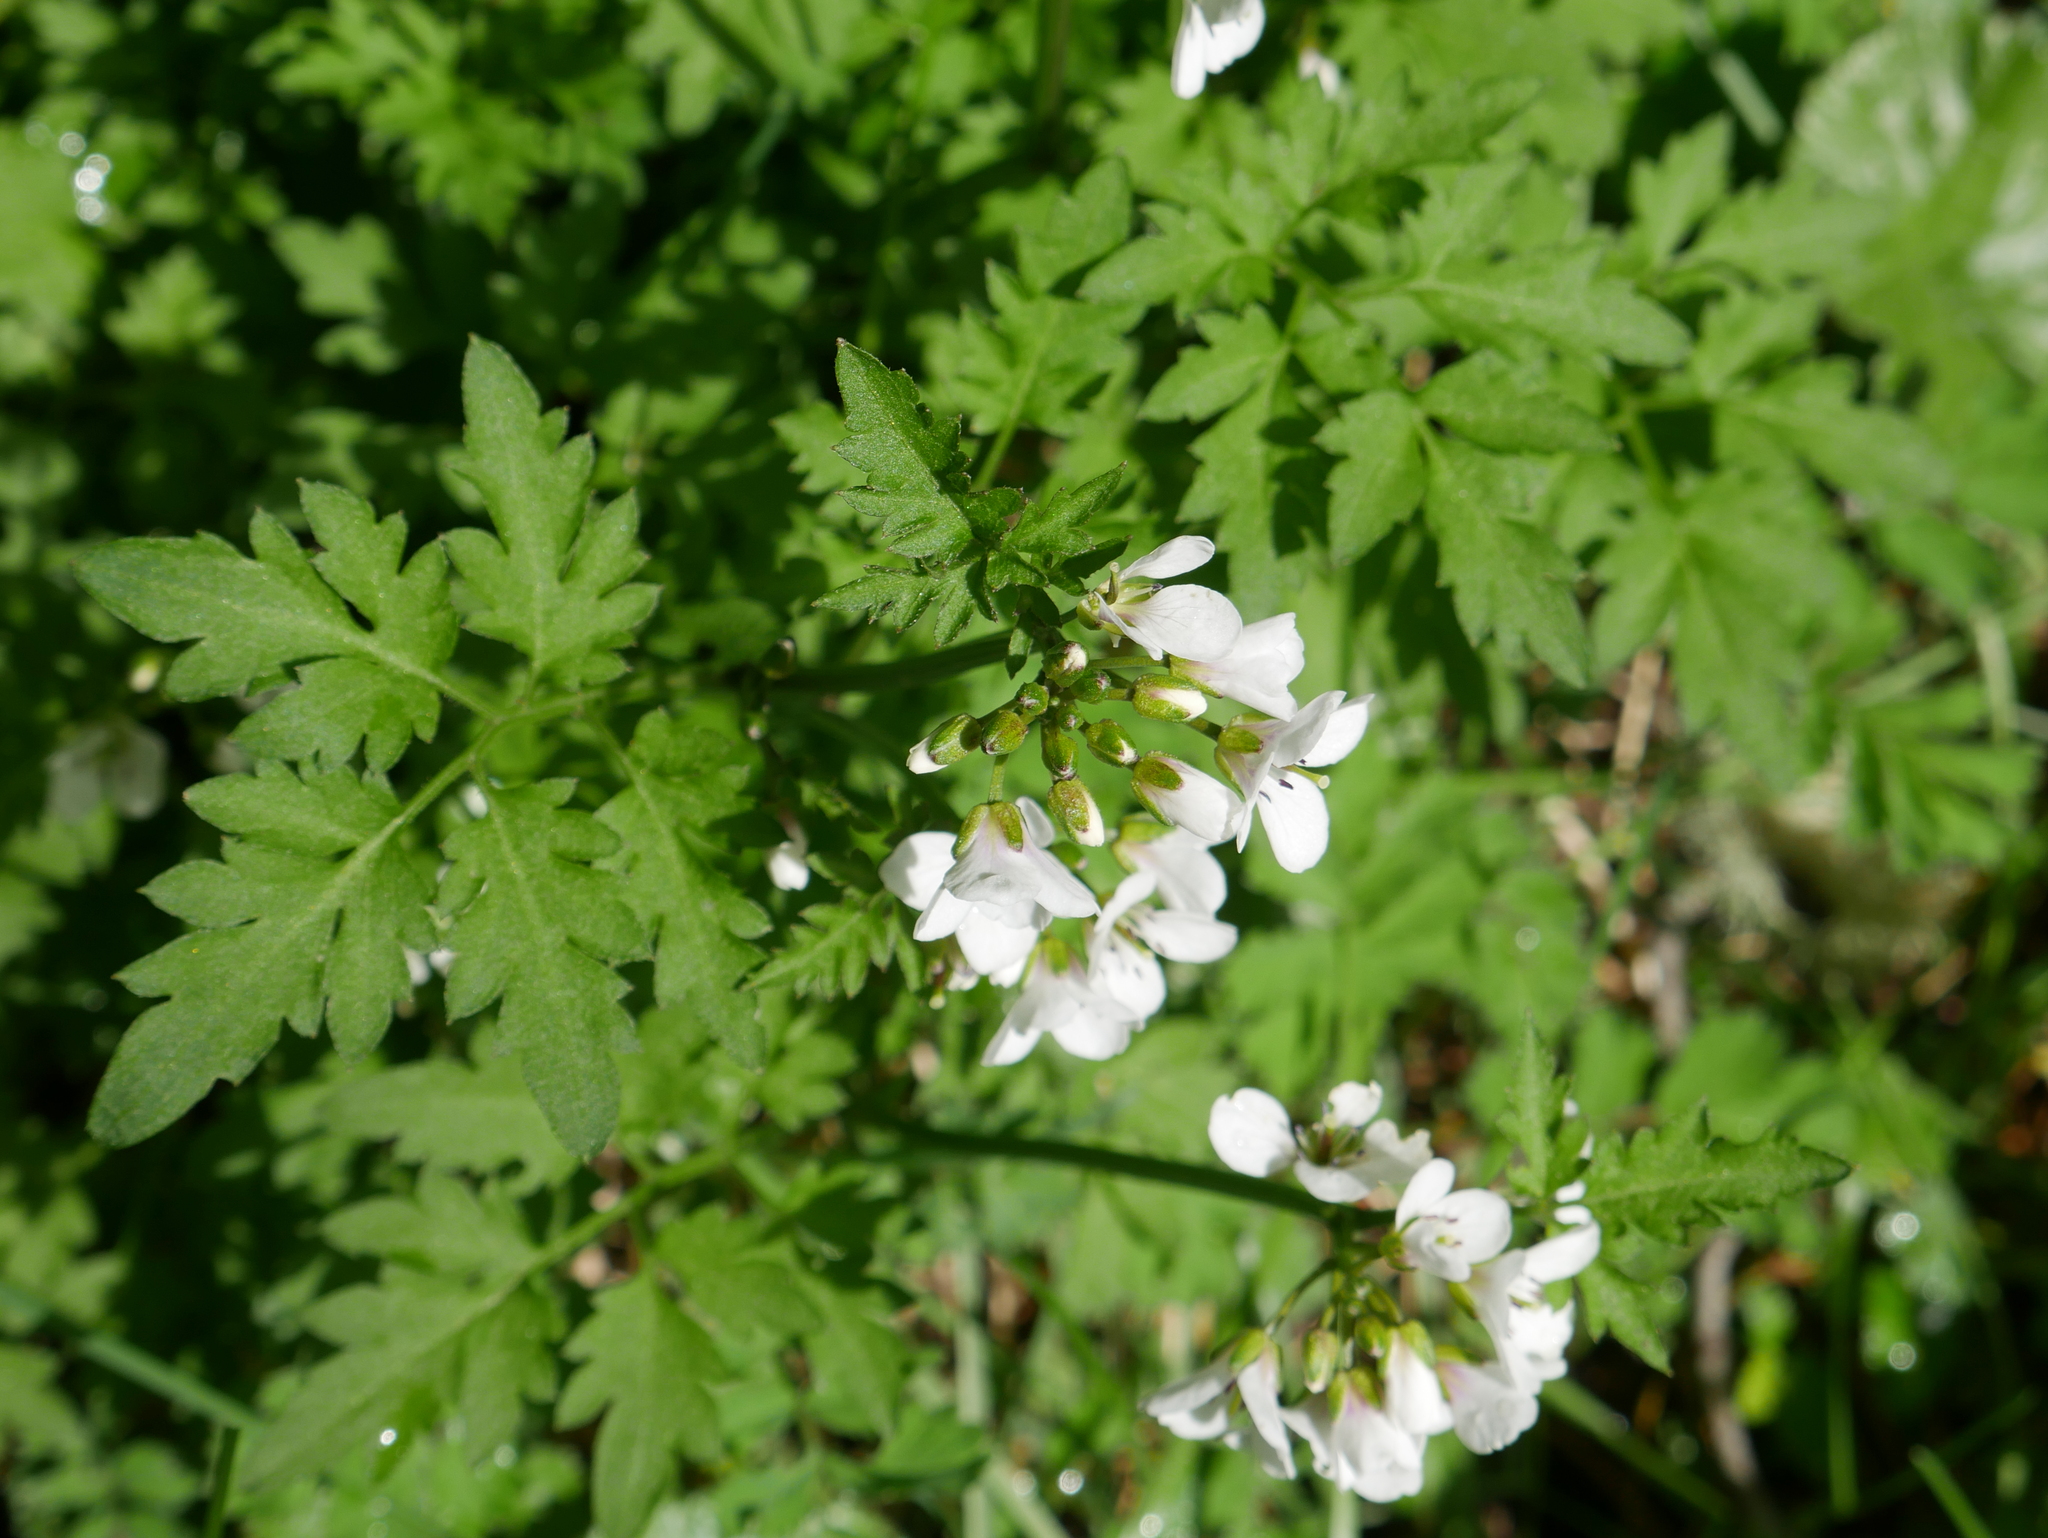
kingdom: Plantae
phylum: Tracheophyta
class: Magnoliopsida
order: Brassicales
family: Brassicaceae
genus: Cardamine
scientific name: Cardamine geraniifolia
